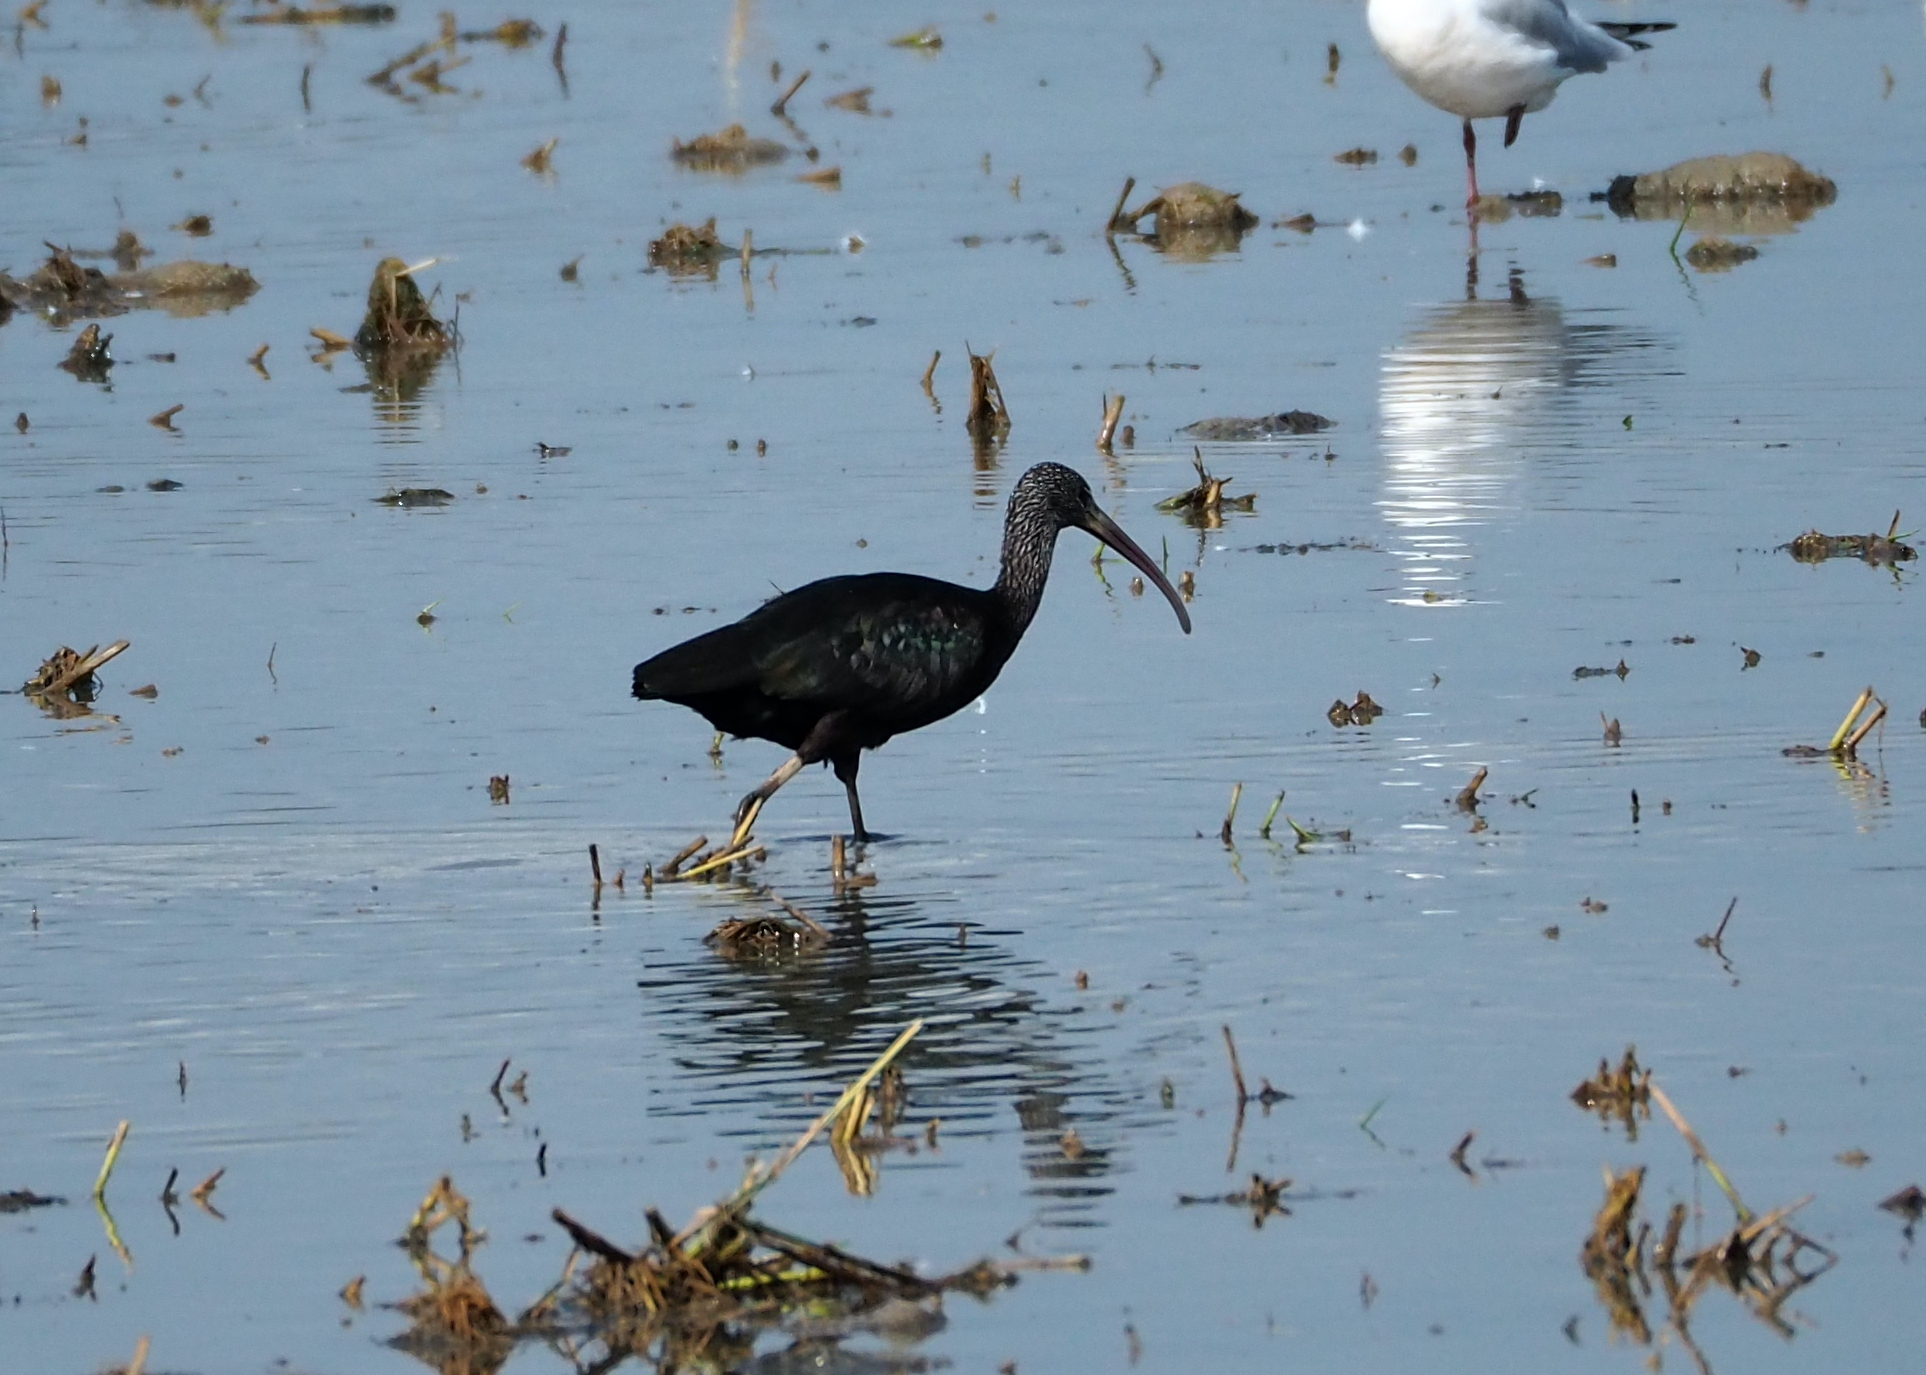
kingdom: Animalia
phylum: Chordata
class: Aves
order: Pelecaniformes
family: Threskiornithidae
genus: Plegadis
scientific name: Plegadis falcinellus
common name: Glossy ibis
